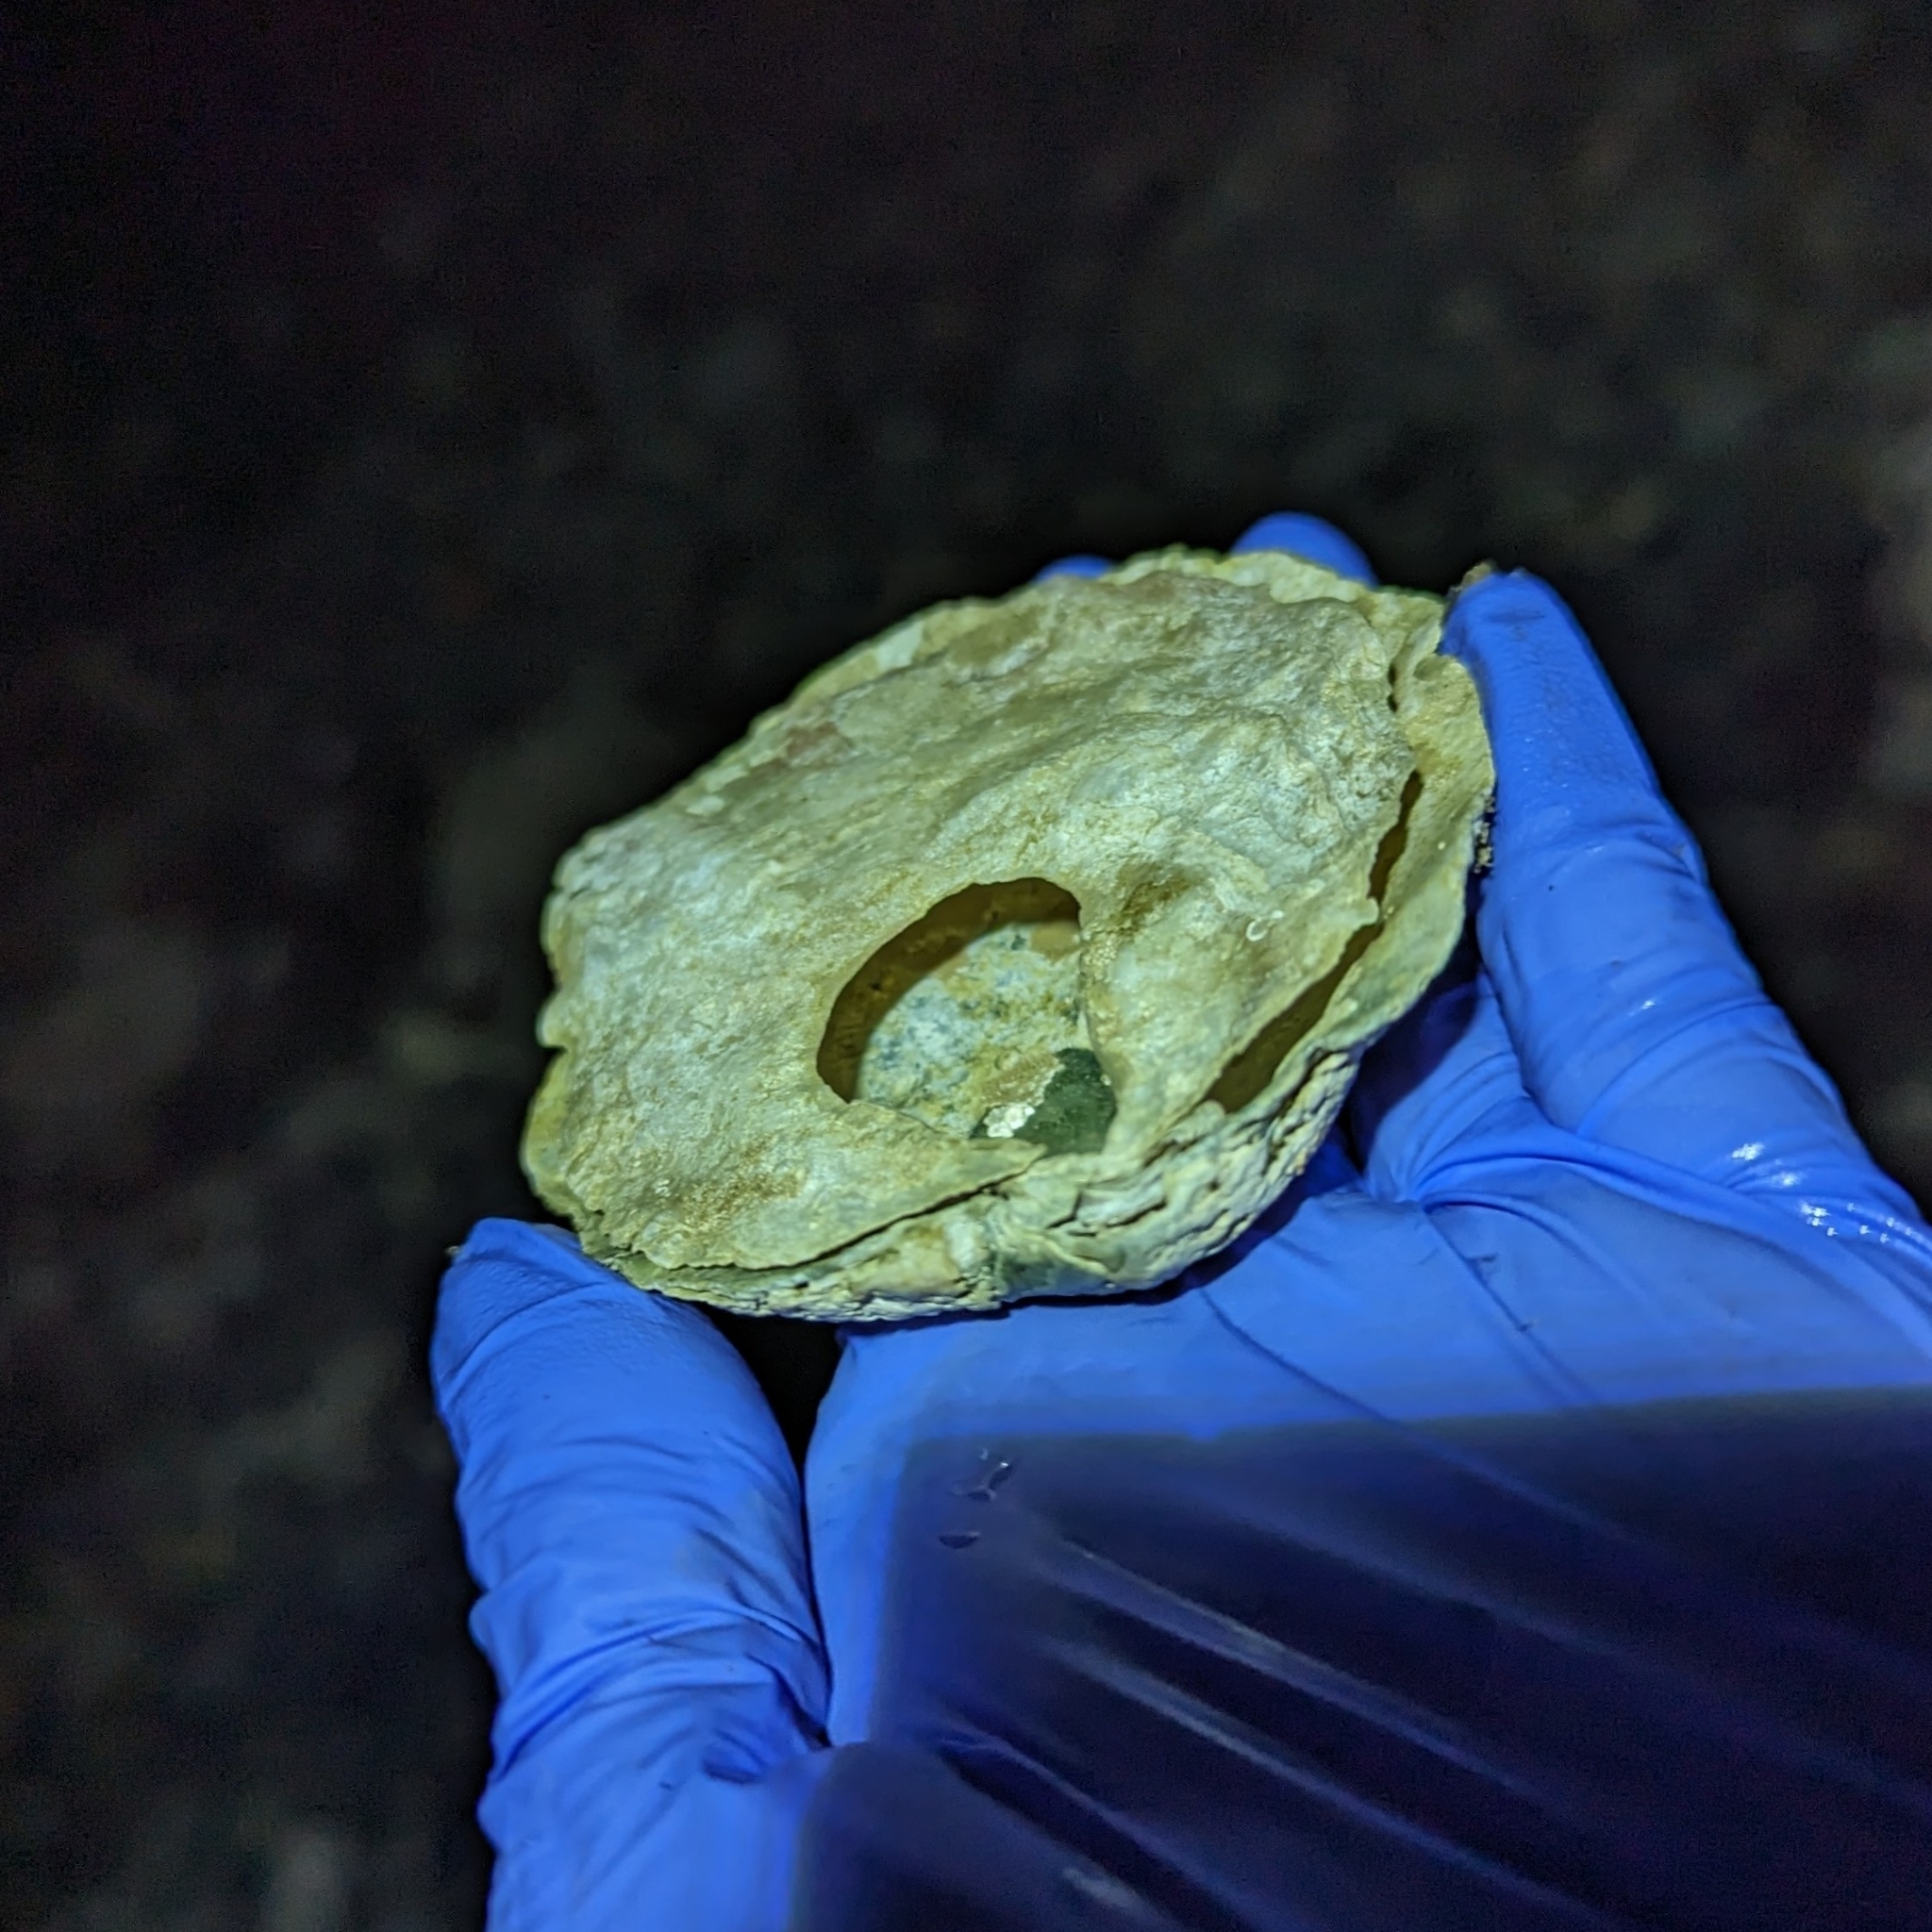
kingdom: Animalia
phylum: Mollusca
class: Bivalvia
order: Pectinida
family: Anomiidae
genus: Pododesmus
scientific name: Pododesmus macrochisma
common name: Alaska jingle
